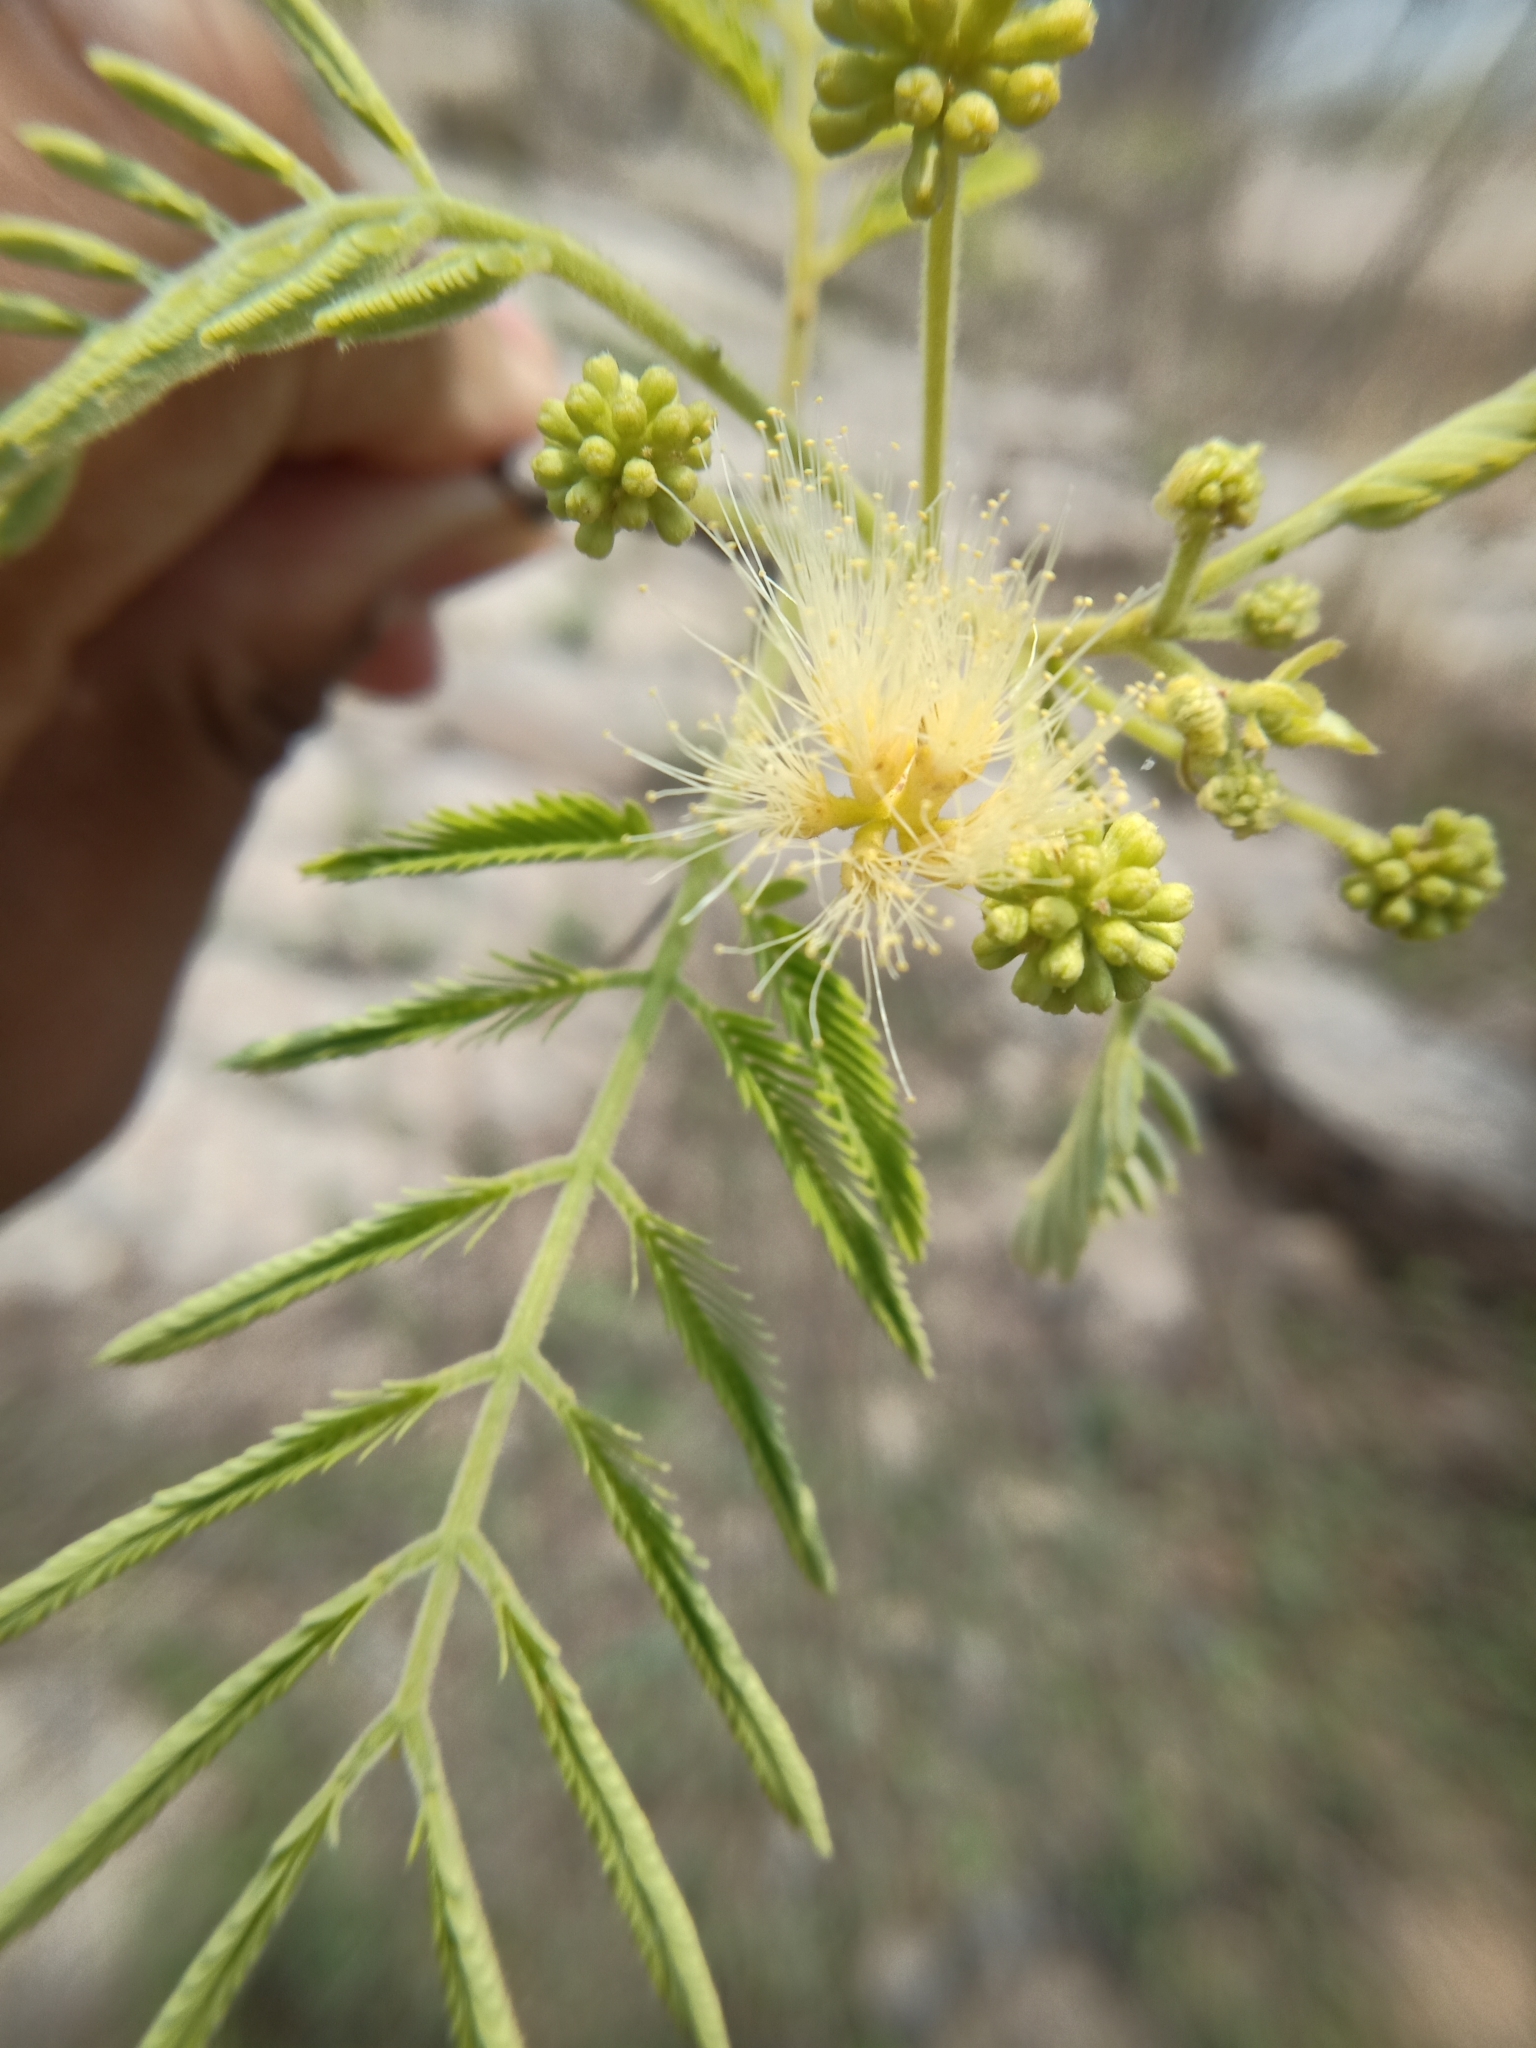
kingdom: Plantae
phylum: Tracheophyta
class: Magnoliopsida
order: Fabales
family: Fabaceae
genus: Albizia
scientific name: Albizia amara
